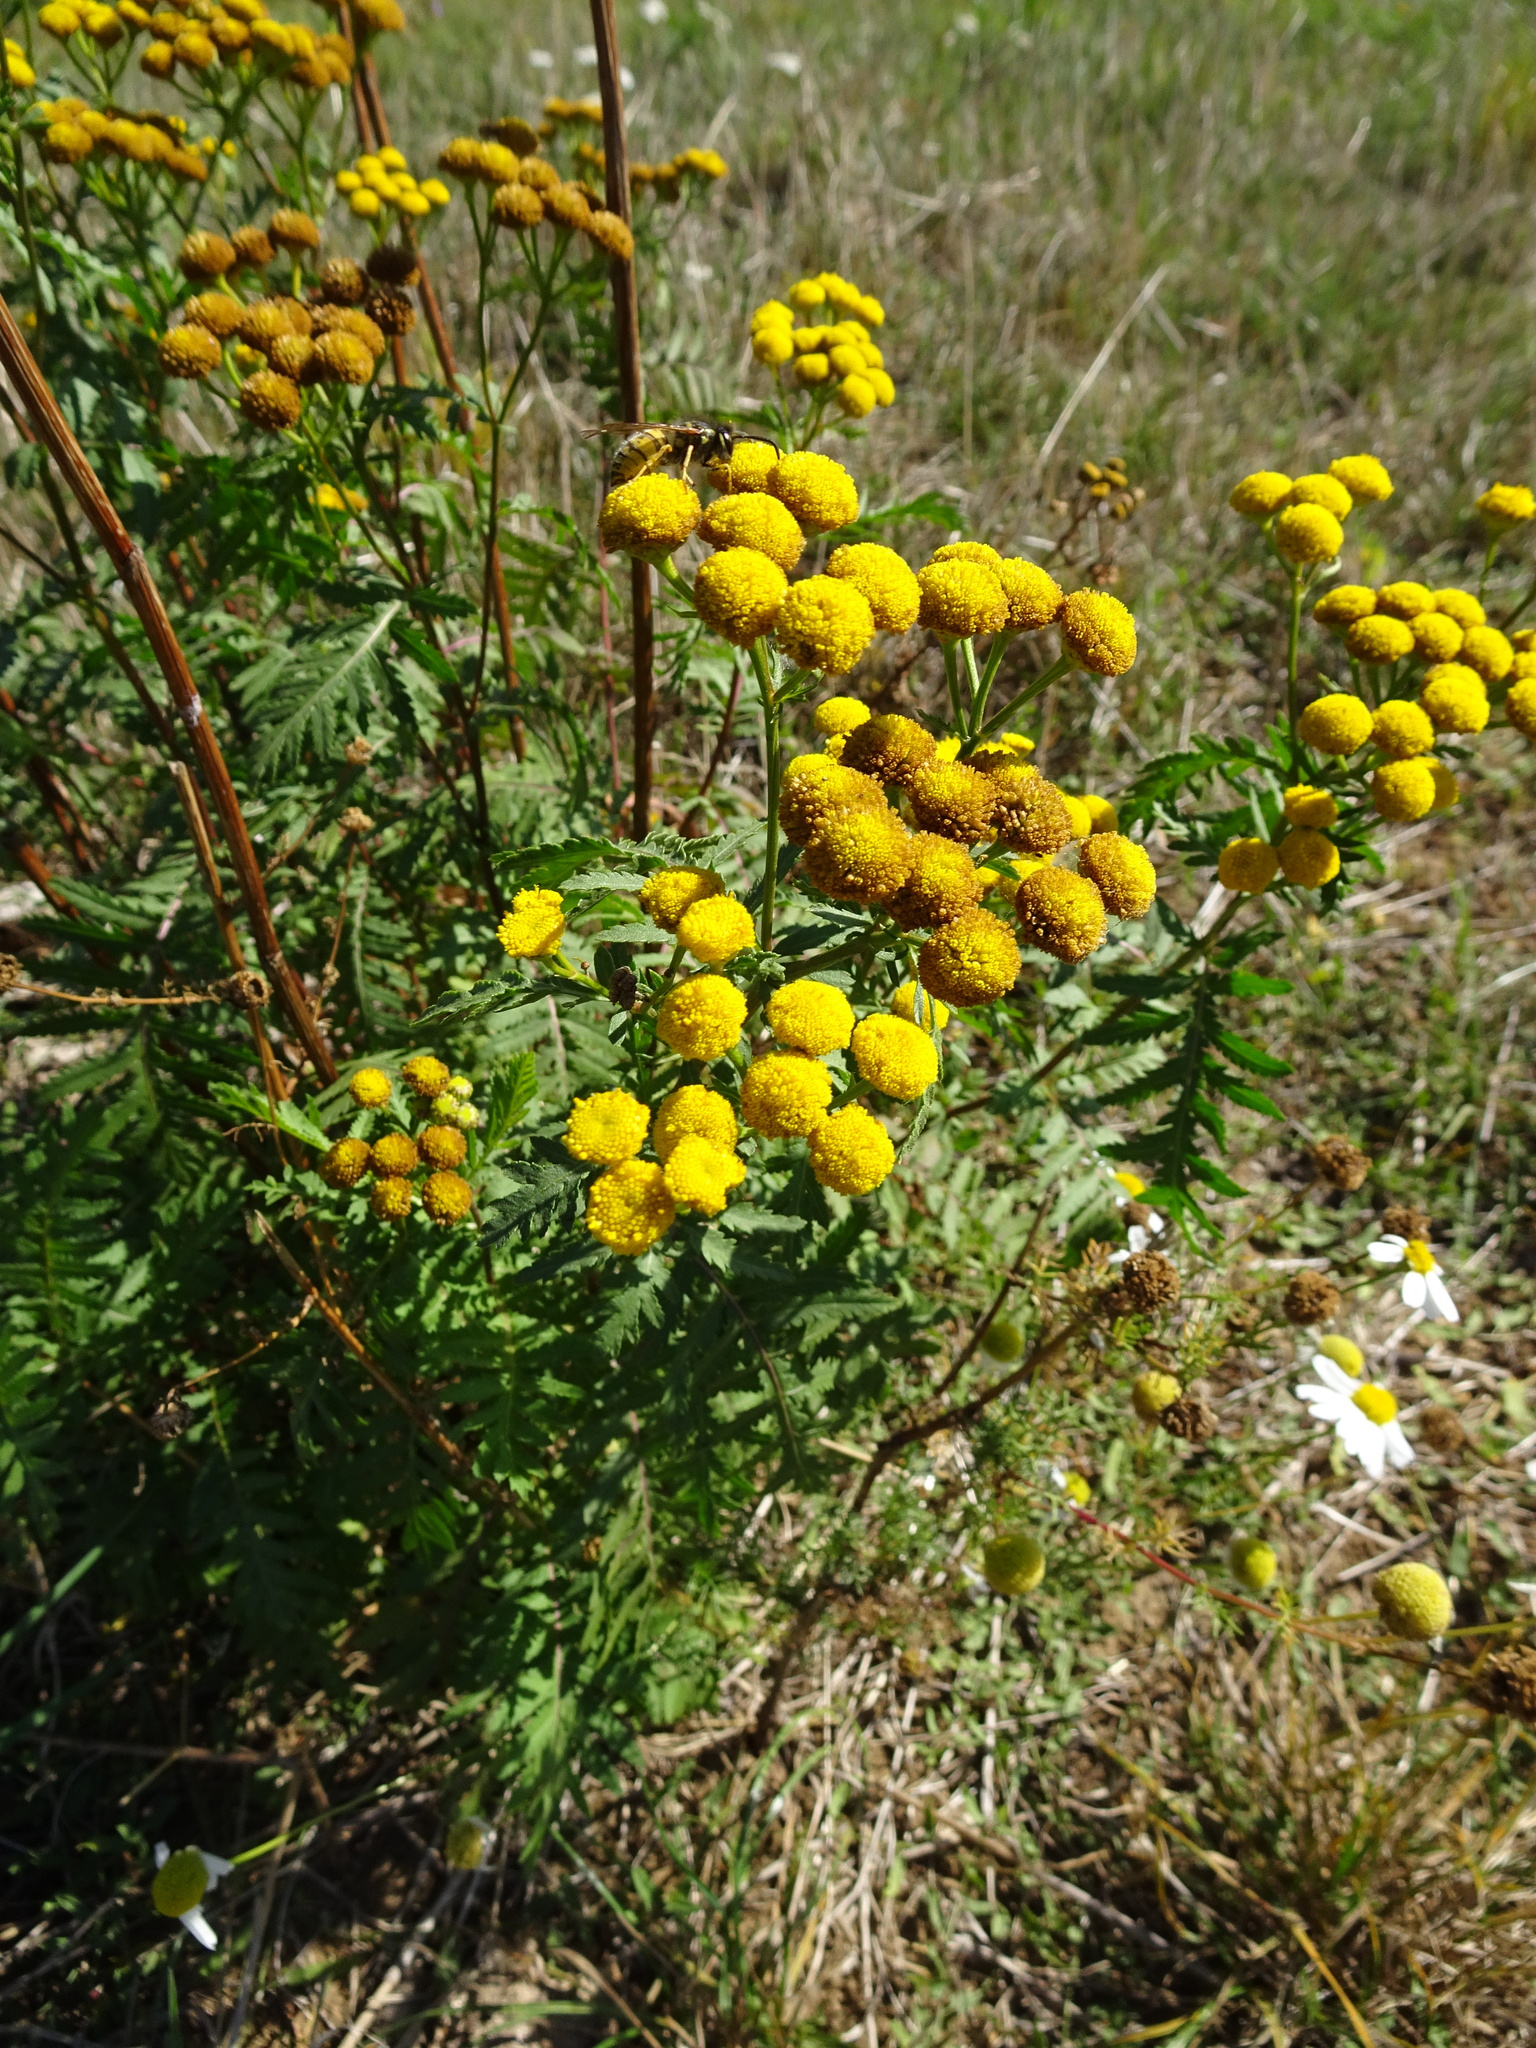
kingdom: Plantae
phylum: Tracheophyta
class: Magnoliopsida
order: Asterales
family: Asteraceae
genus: Tanacetum
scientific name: Tanacetum vulgare
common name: Common tansy
